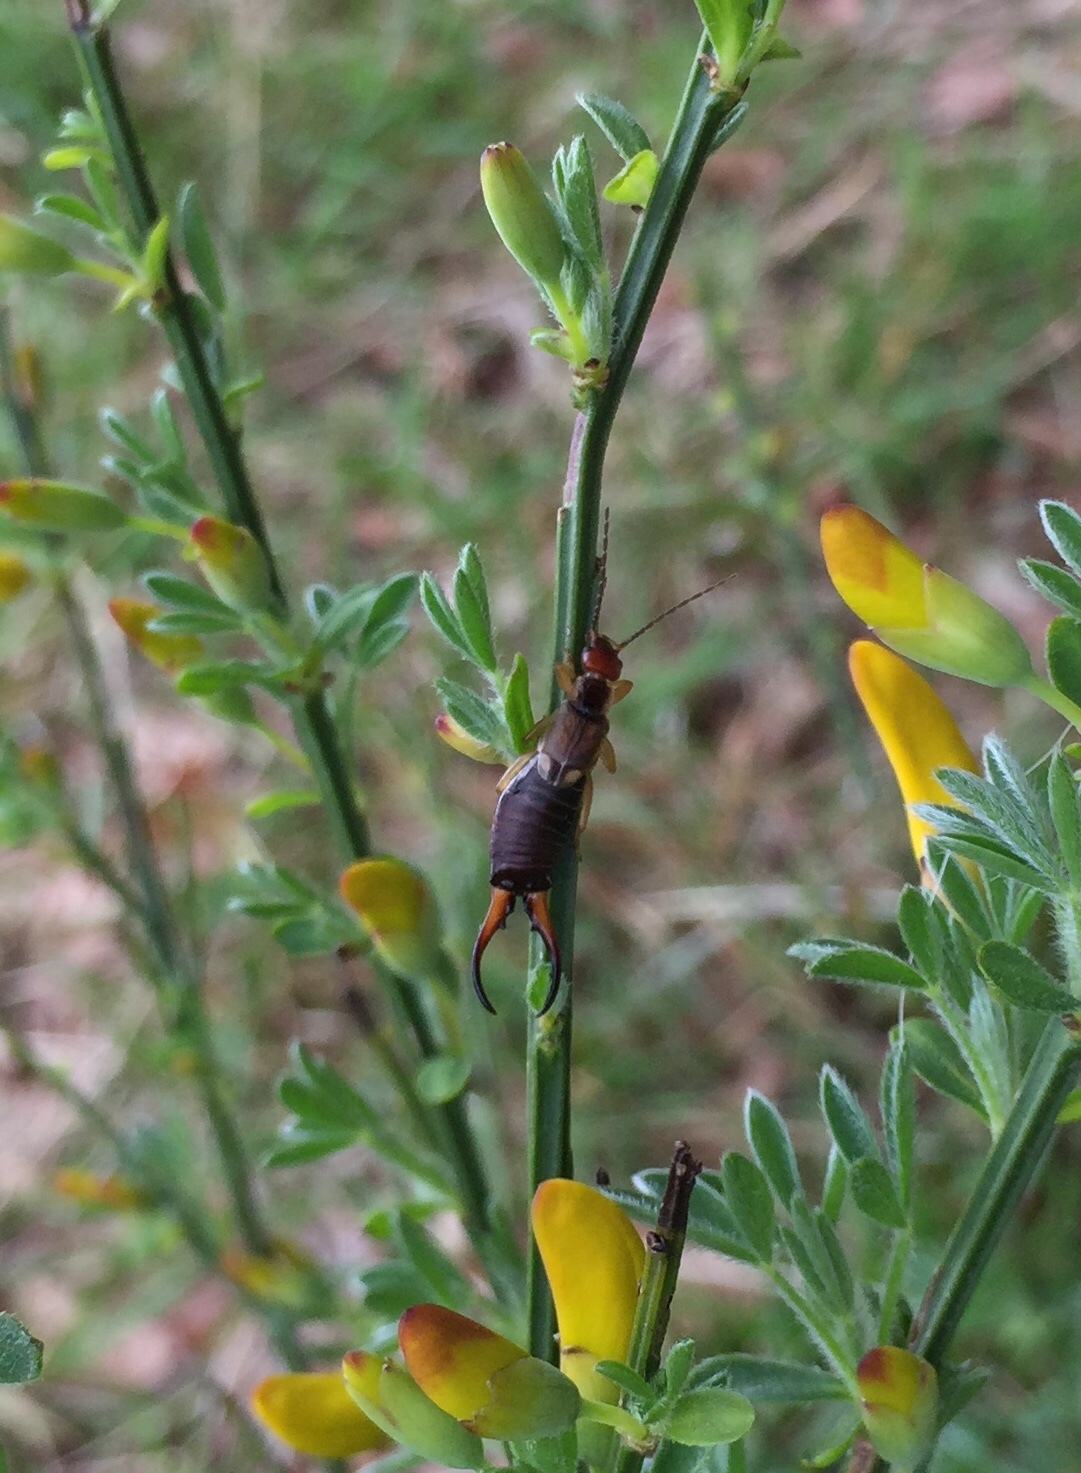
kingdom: Animalia
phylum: Arthropoda
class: Insecta
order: Dermaptera
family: Forficulidae
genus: Forficula
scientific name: Forficula
